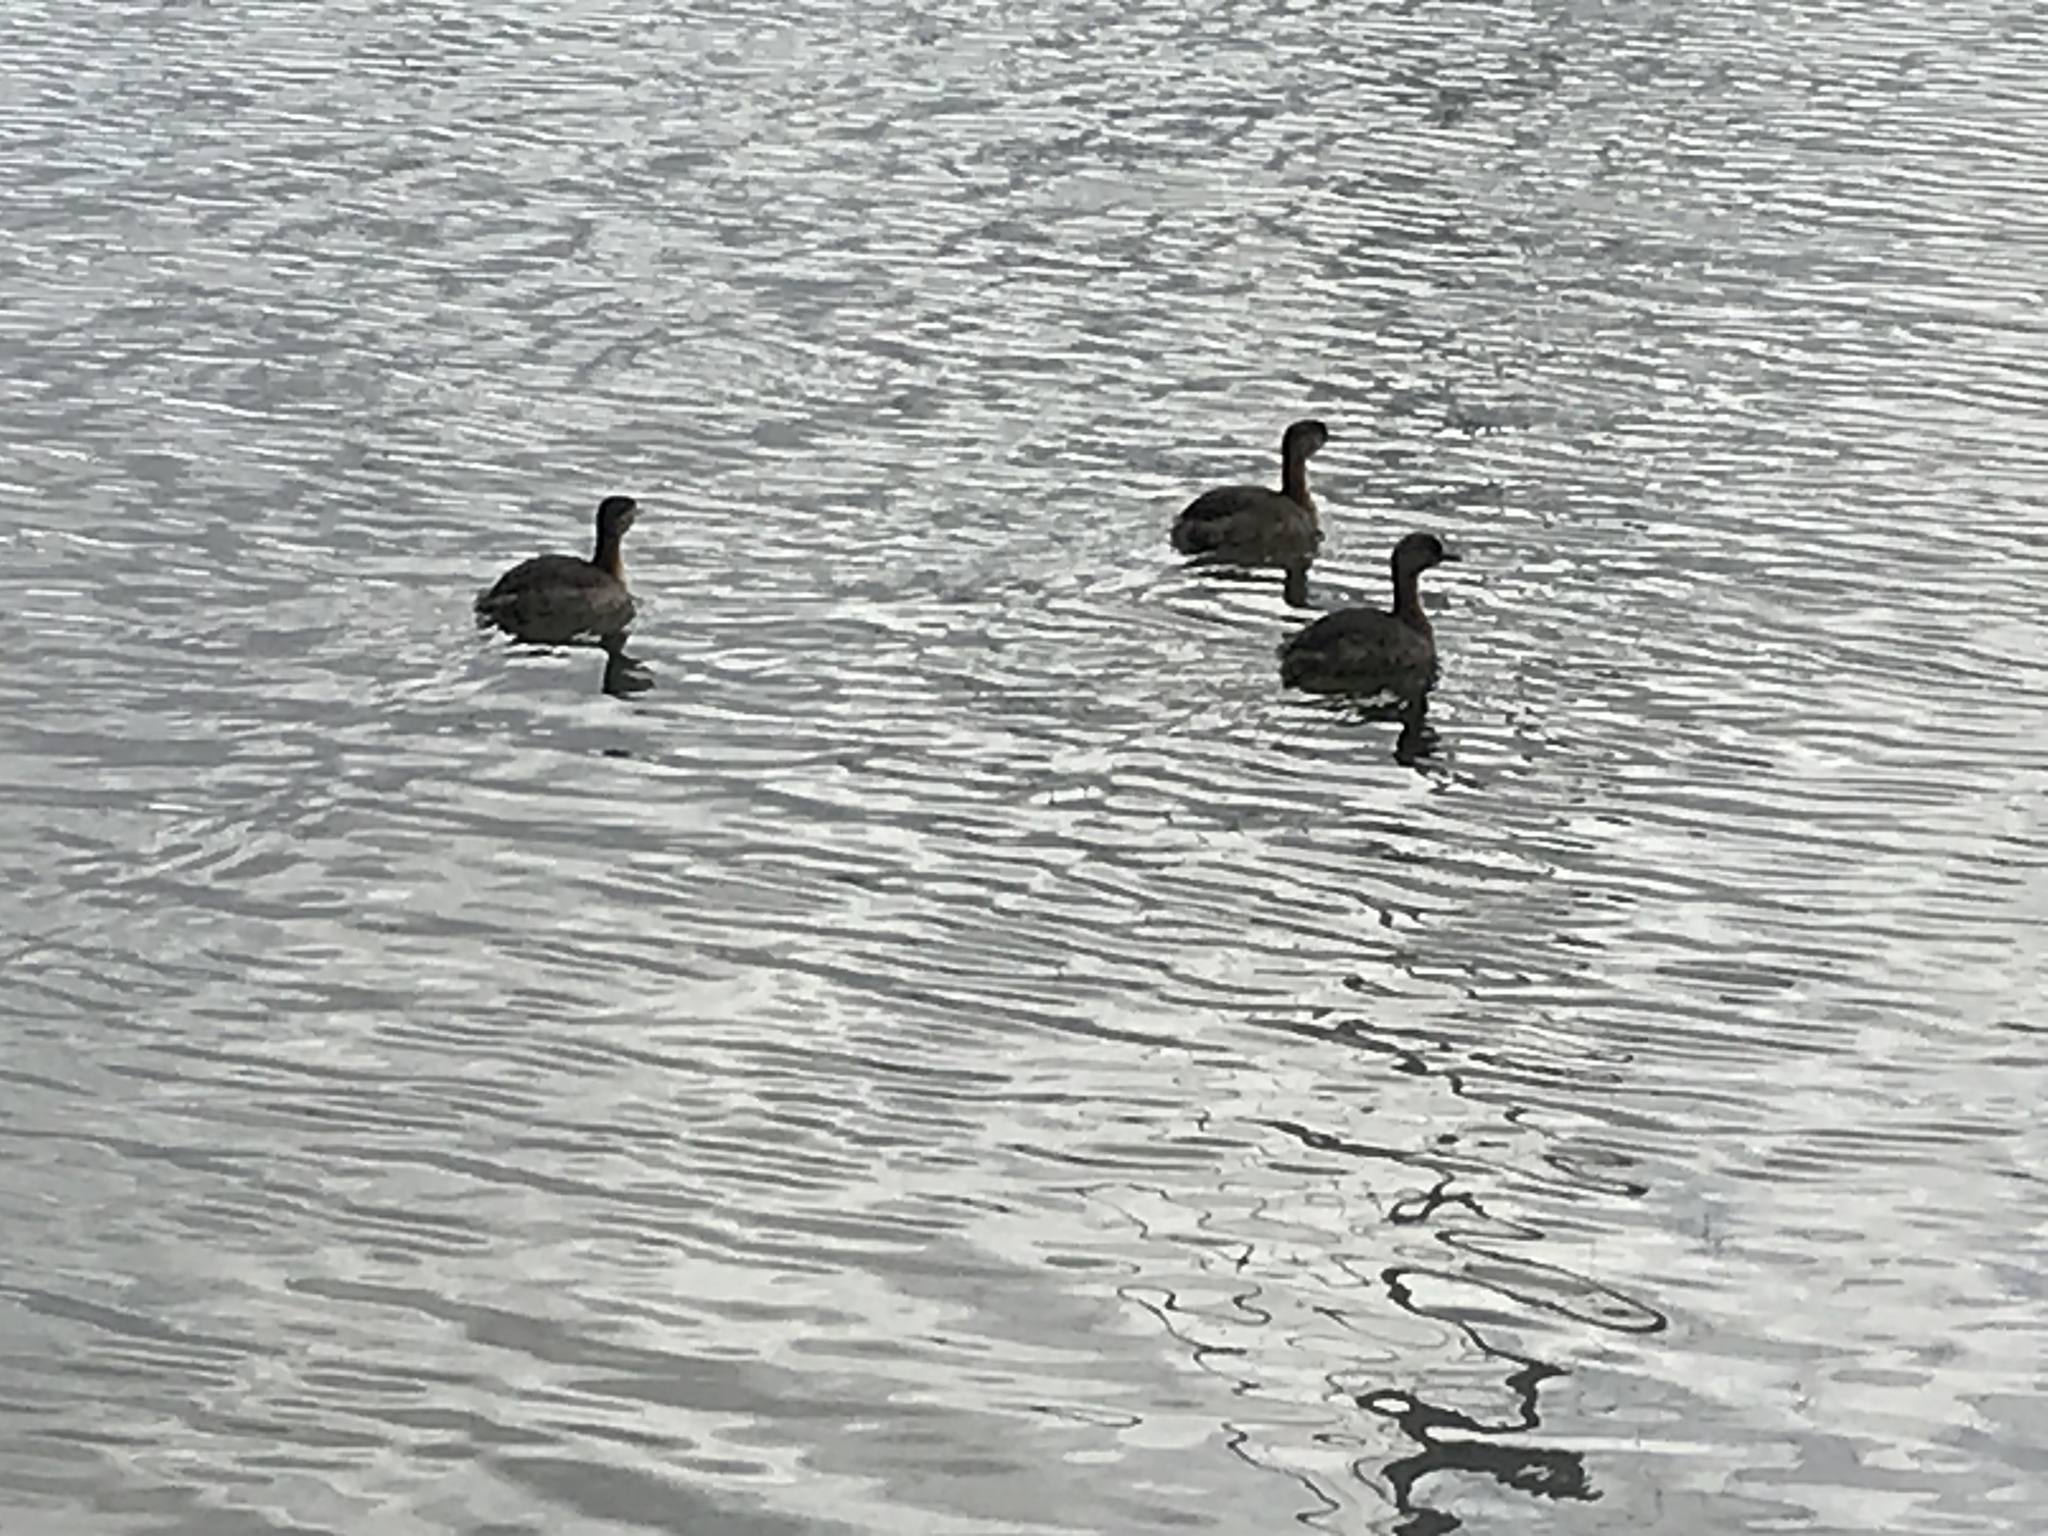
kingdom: Animalia
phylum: Chordata
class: Aves
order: Podicipediformes
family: Podicipedidae
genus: Poliocephalus
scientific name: Poliocephalus rufopectus
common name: New zealand grebe
